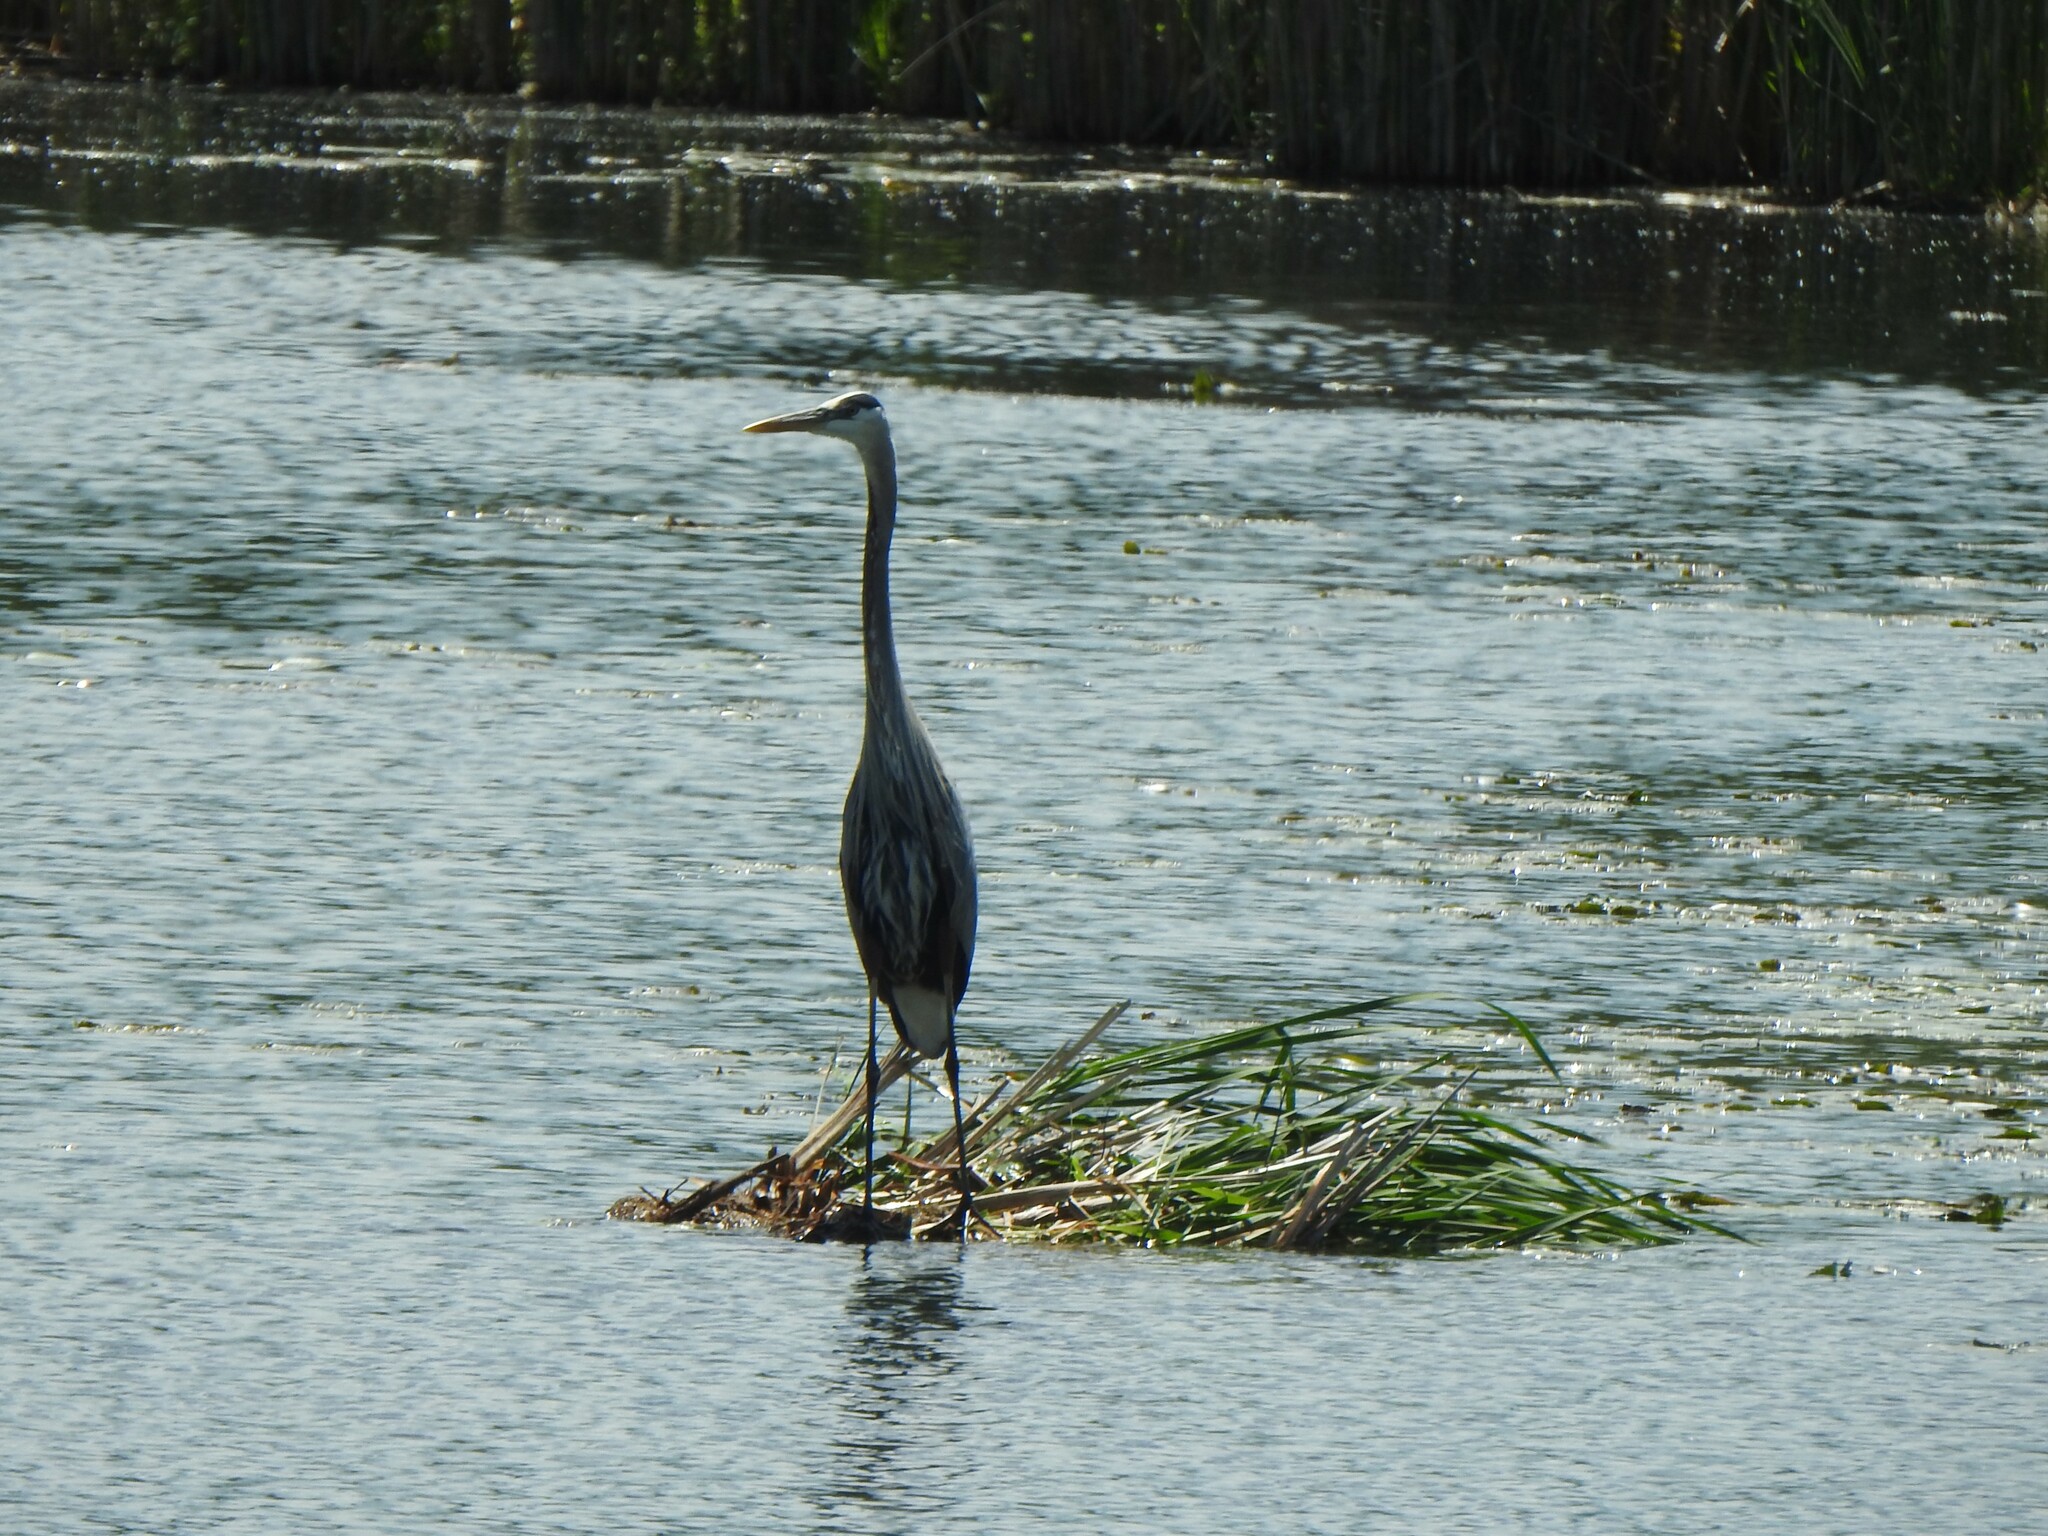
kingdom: Animalia
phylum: Chordata
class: Aves
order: Pelecaniformes
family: Ardeidae
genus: Ardea
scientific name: Ardea herodias
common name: Great blue heron
